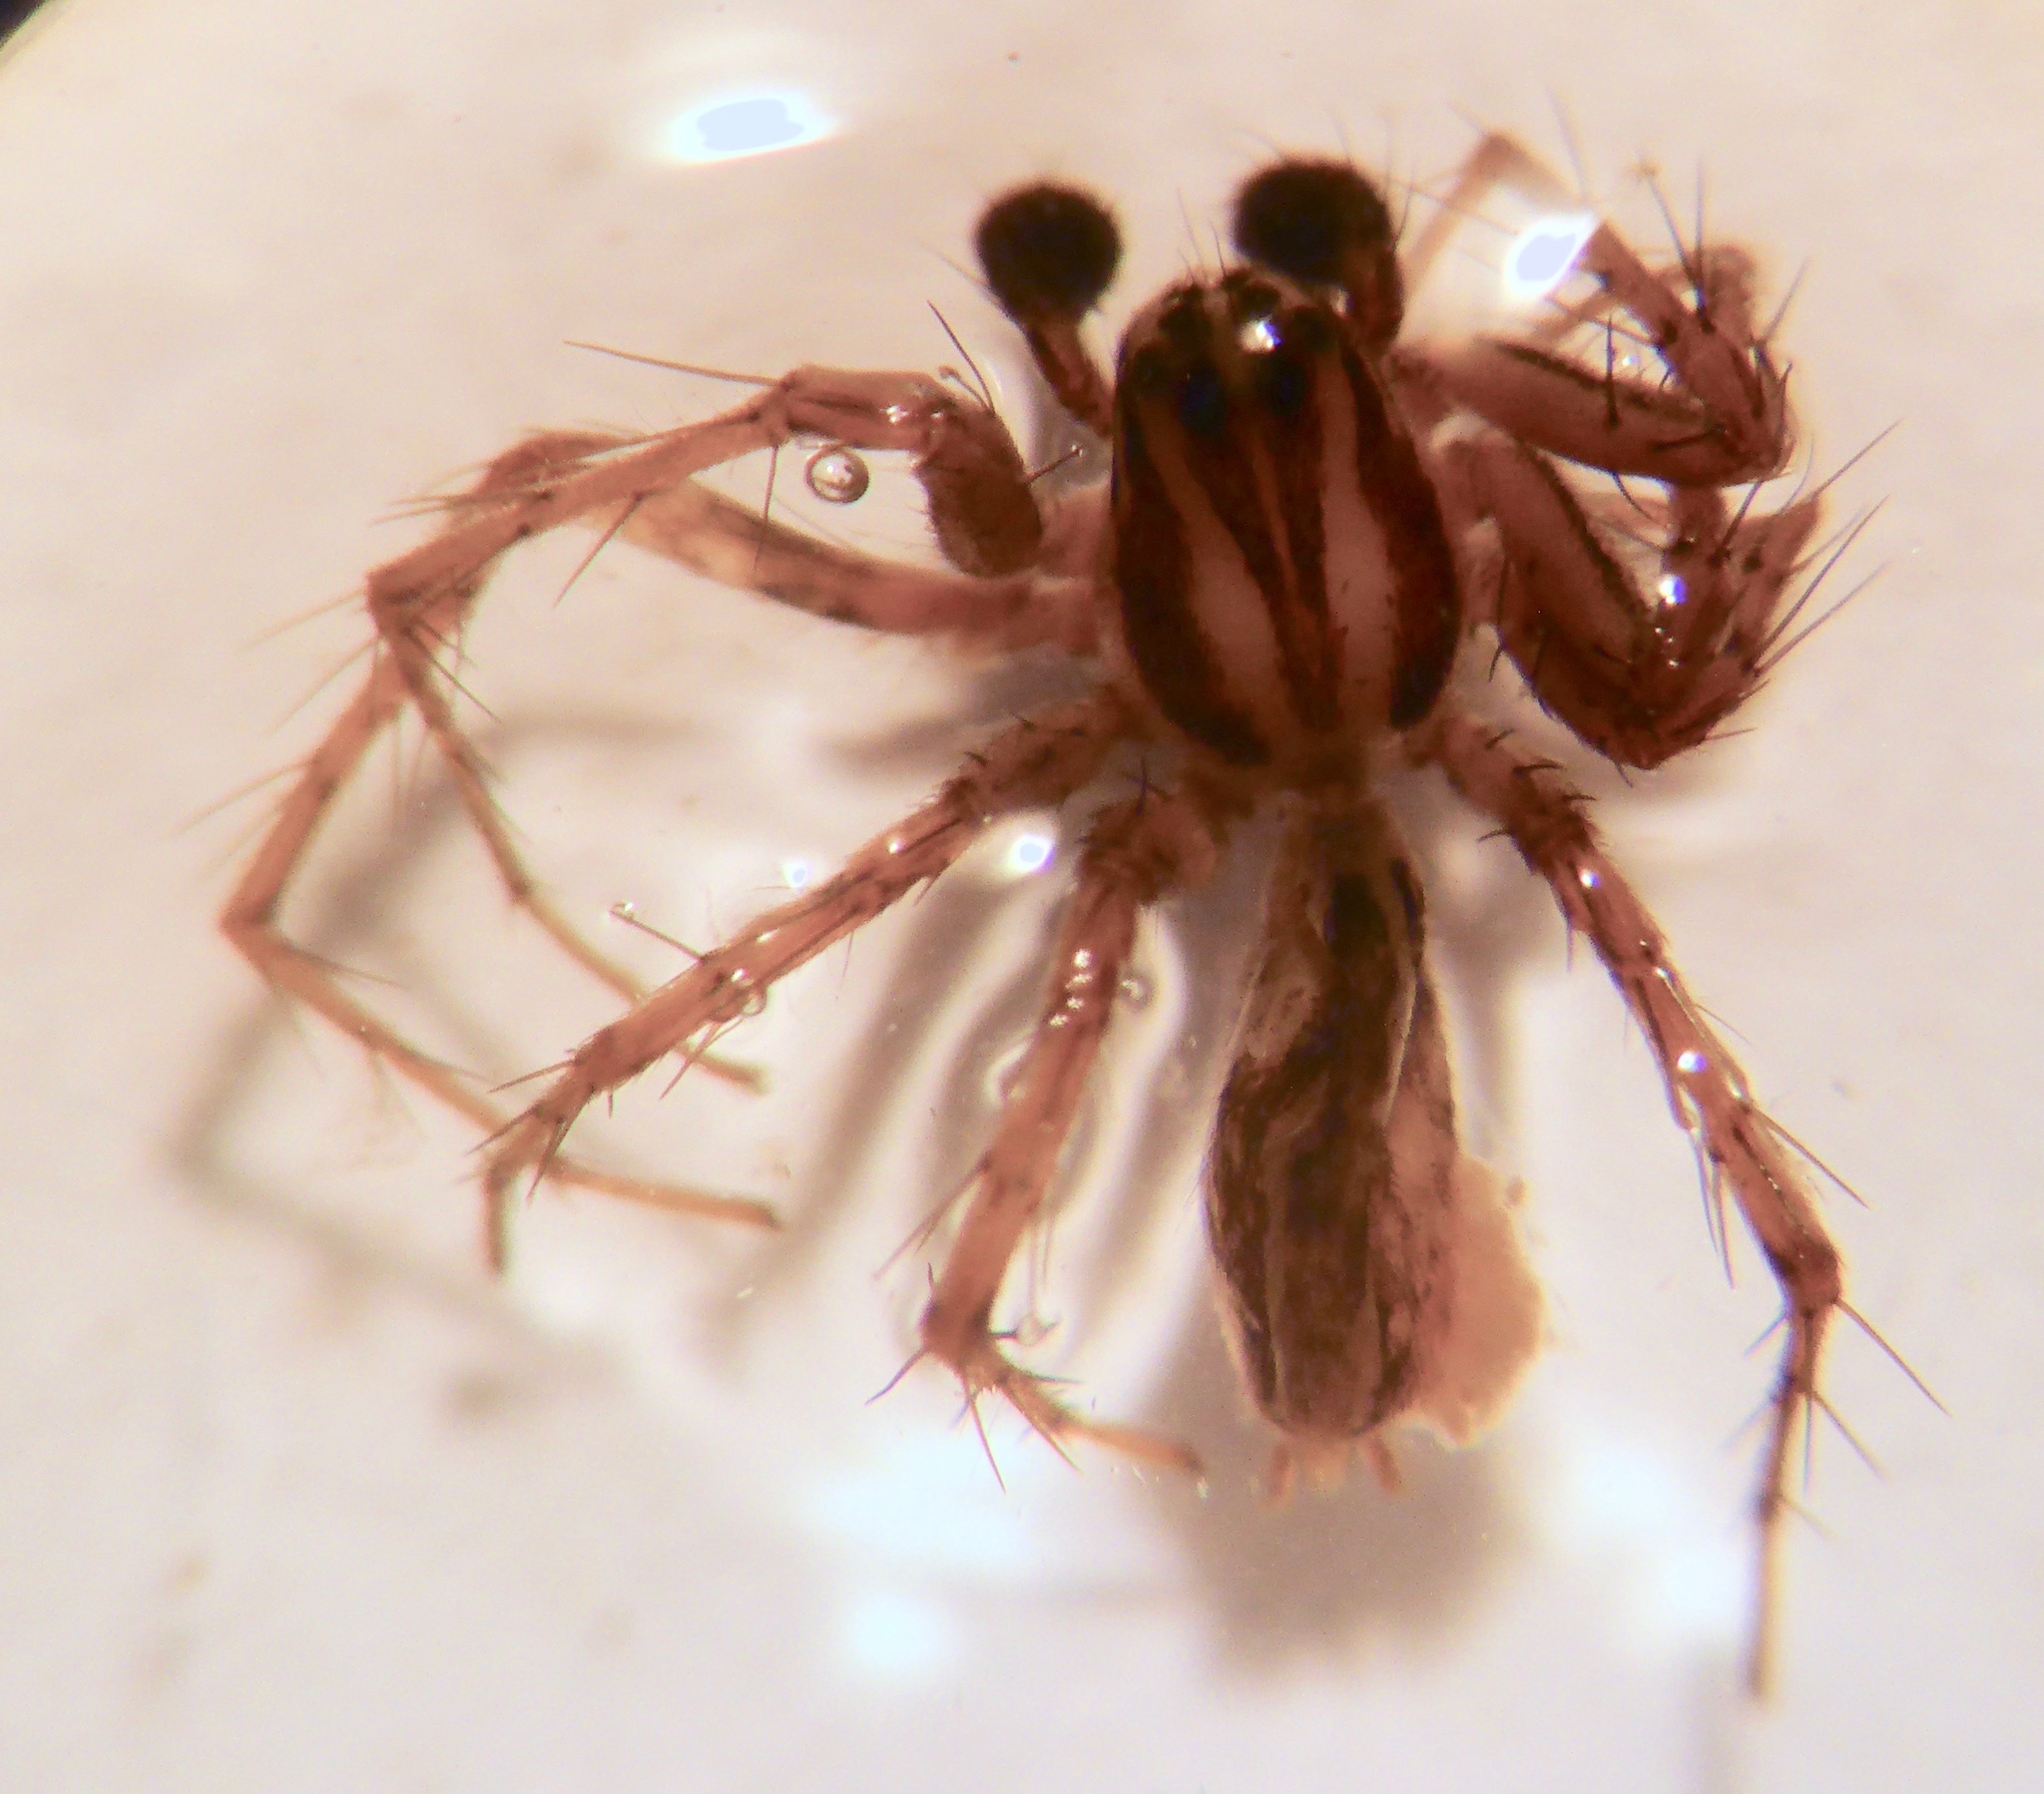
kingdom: Animalia
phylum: Arthropoda
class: Arachnida
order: Araneae
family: Oxyopidae
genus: Oxyopes
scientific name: Oxyopes gracilipes
